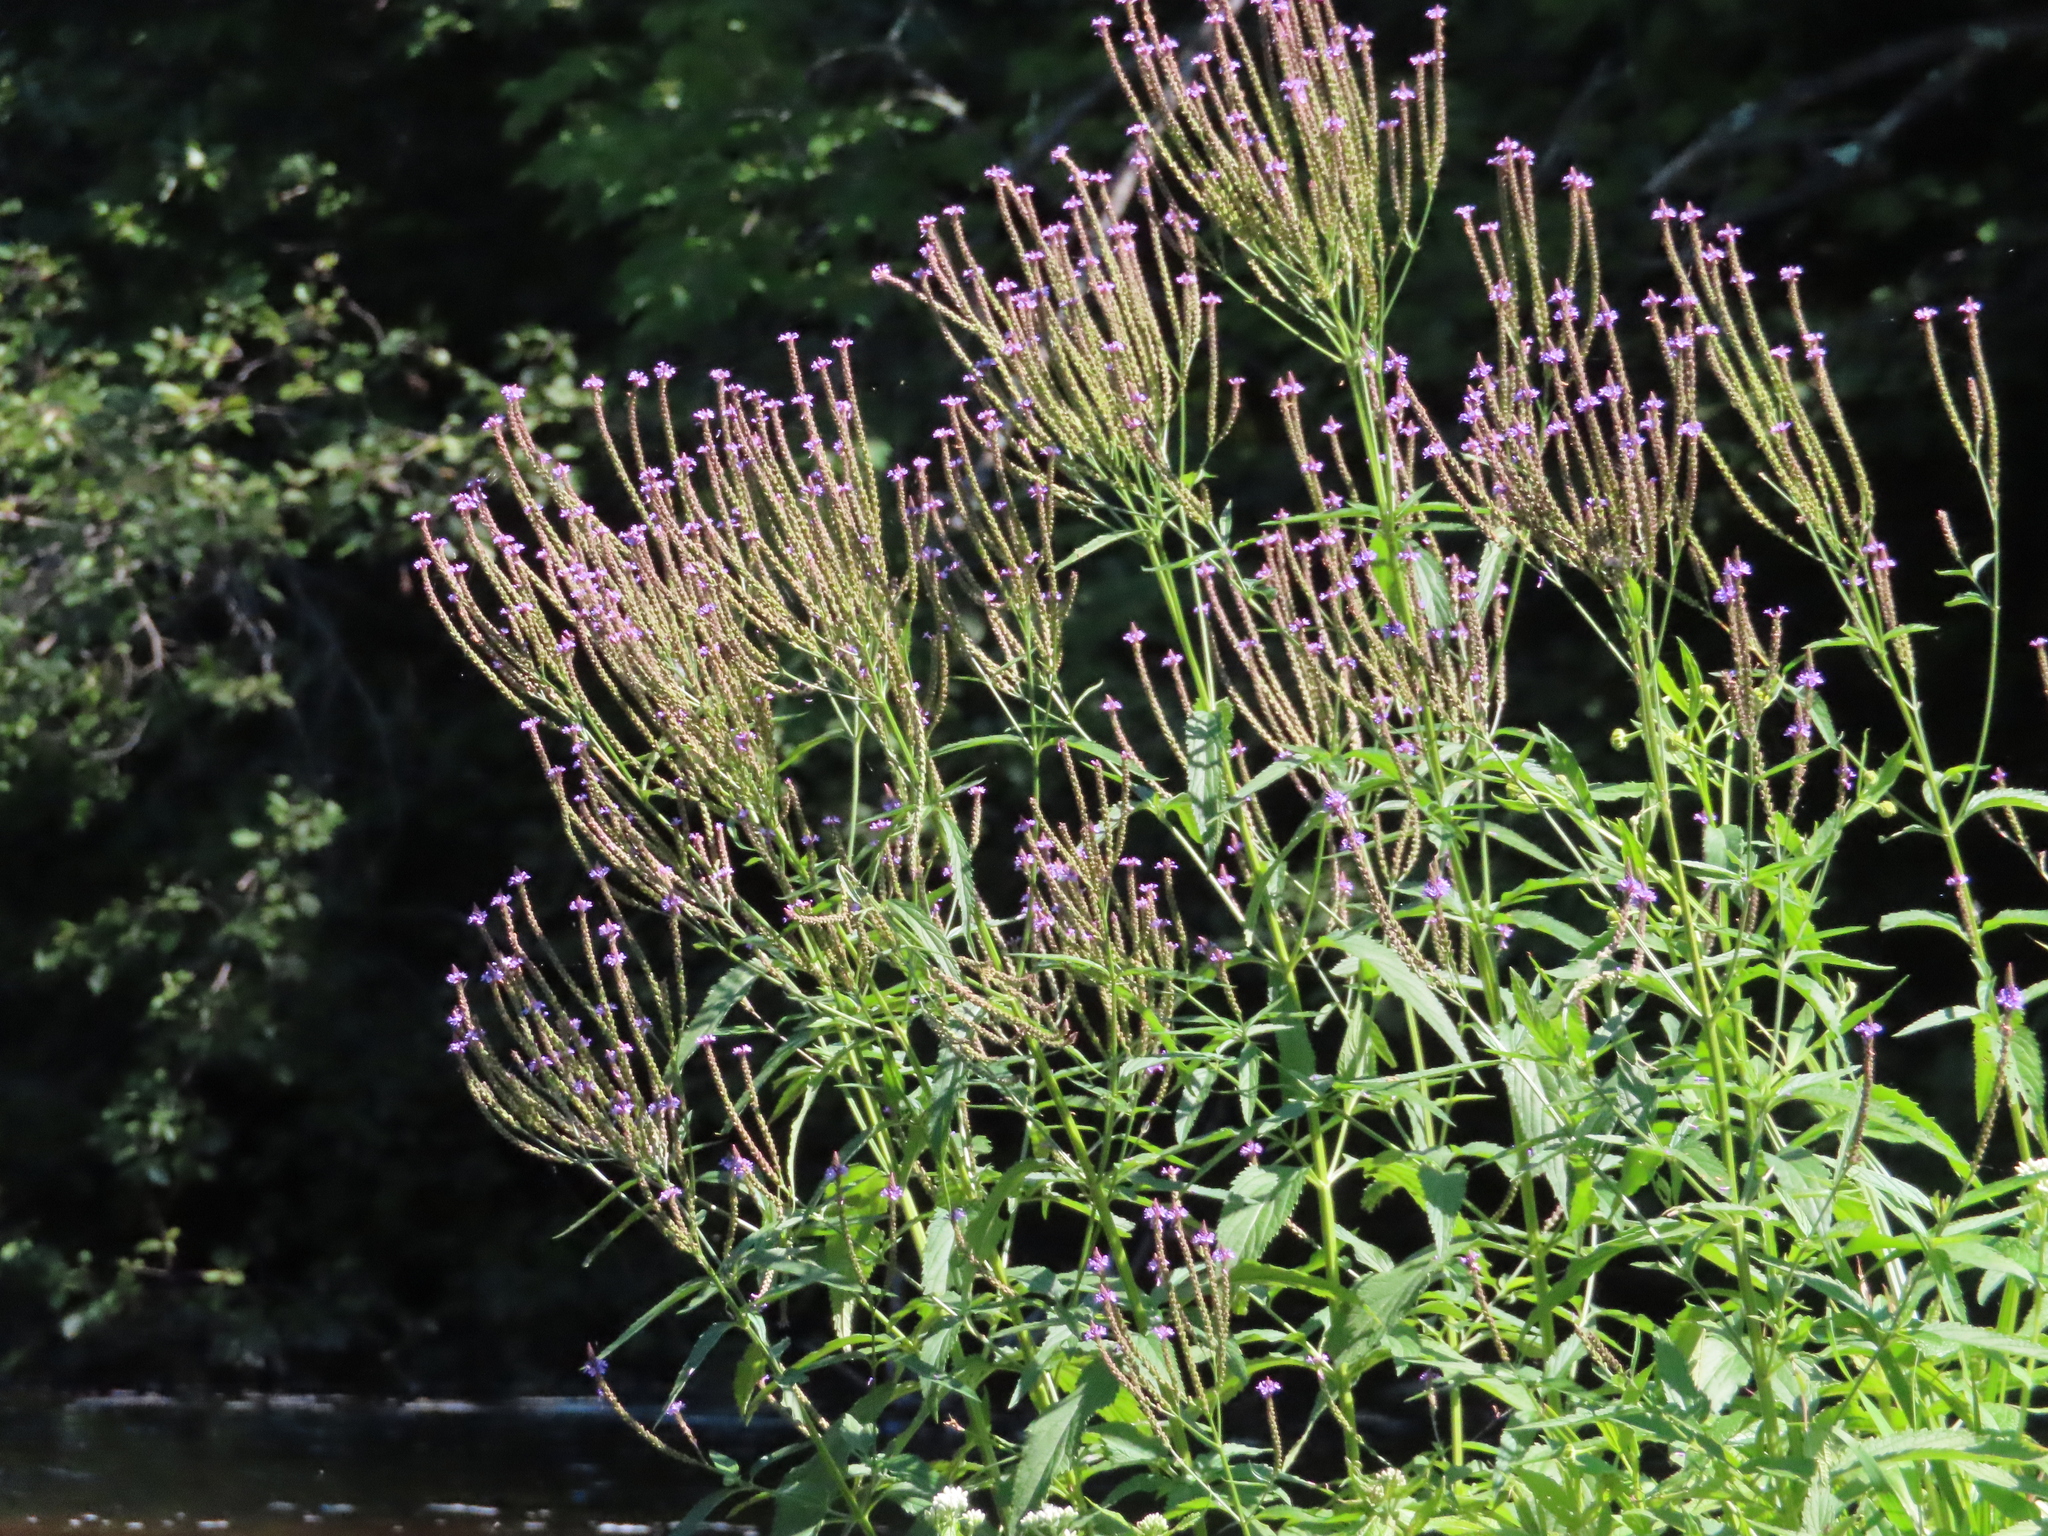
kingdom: Plantae
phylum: Tracheophyta
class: Magnoliopsida
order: Lamiales
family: Verbenaceae
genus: Verbena
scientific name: Verbena hastata
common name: American blue vervain
